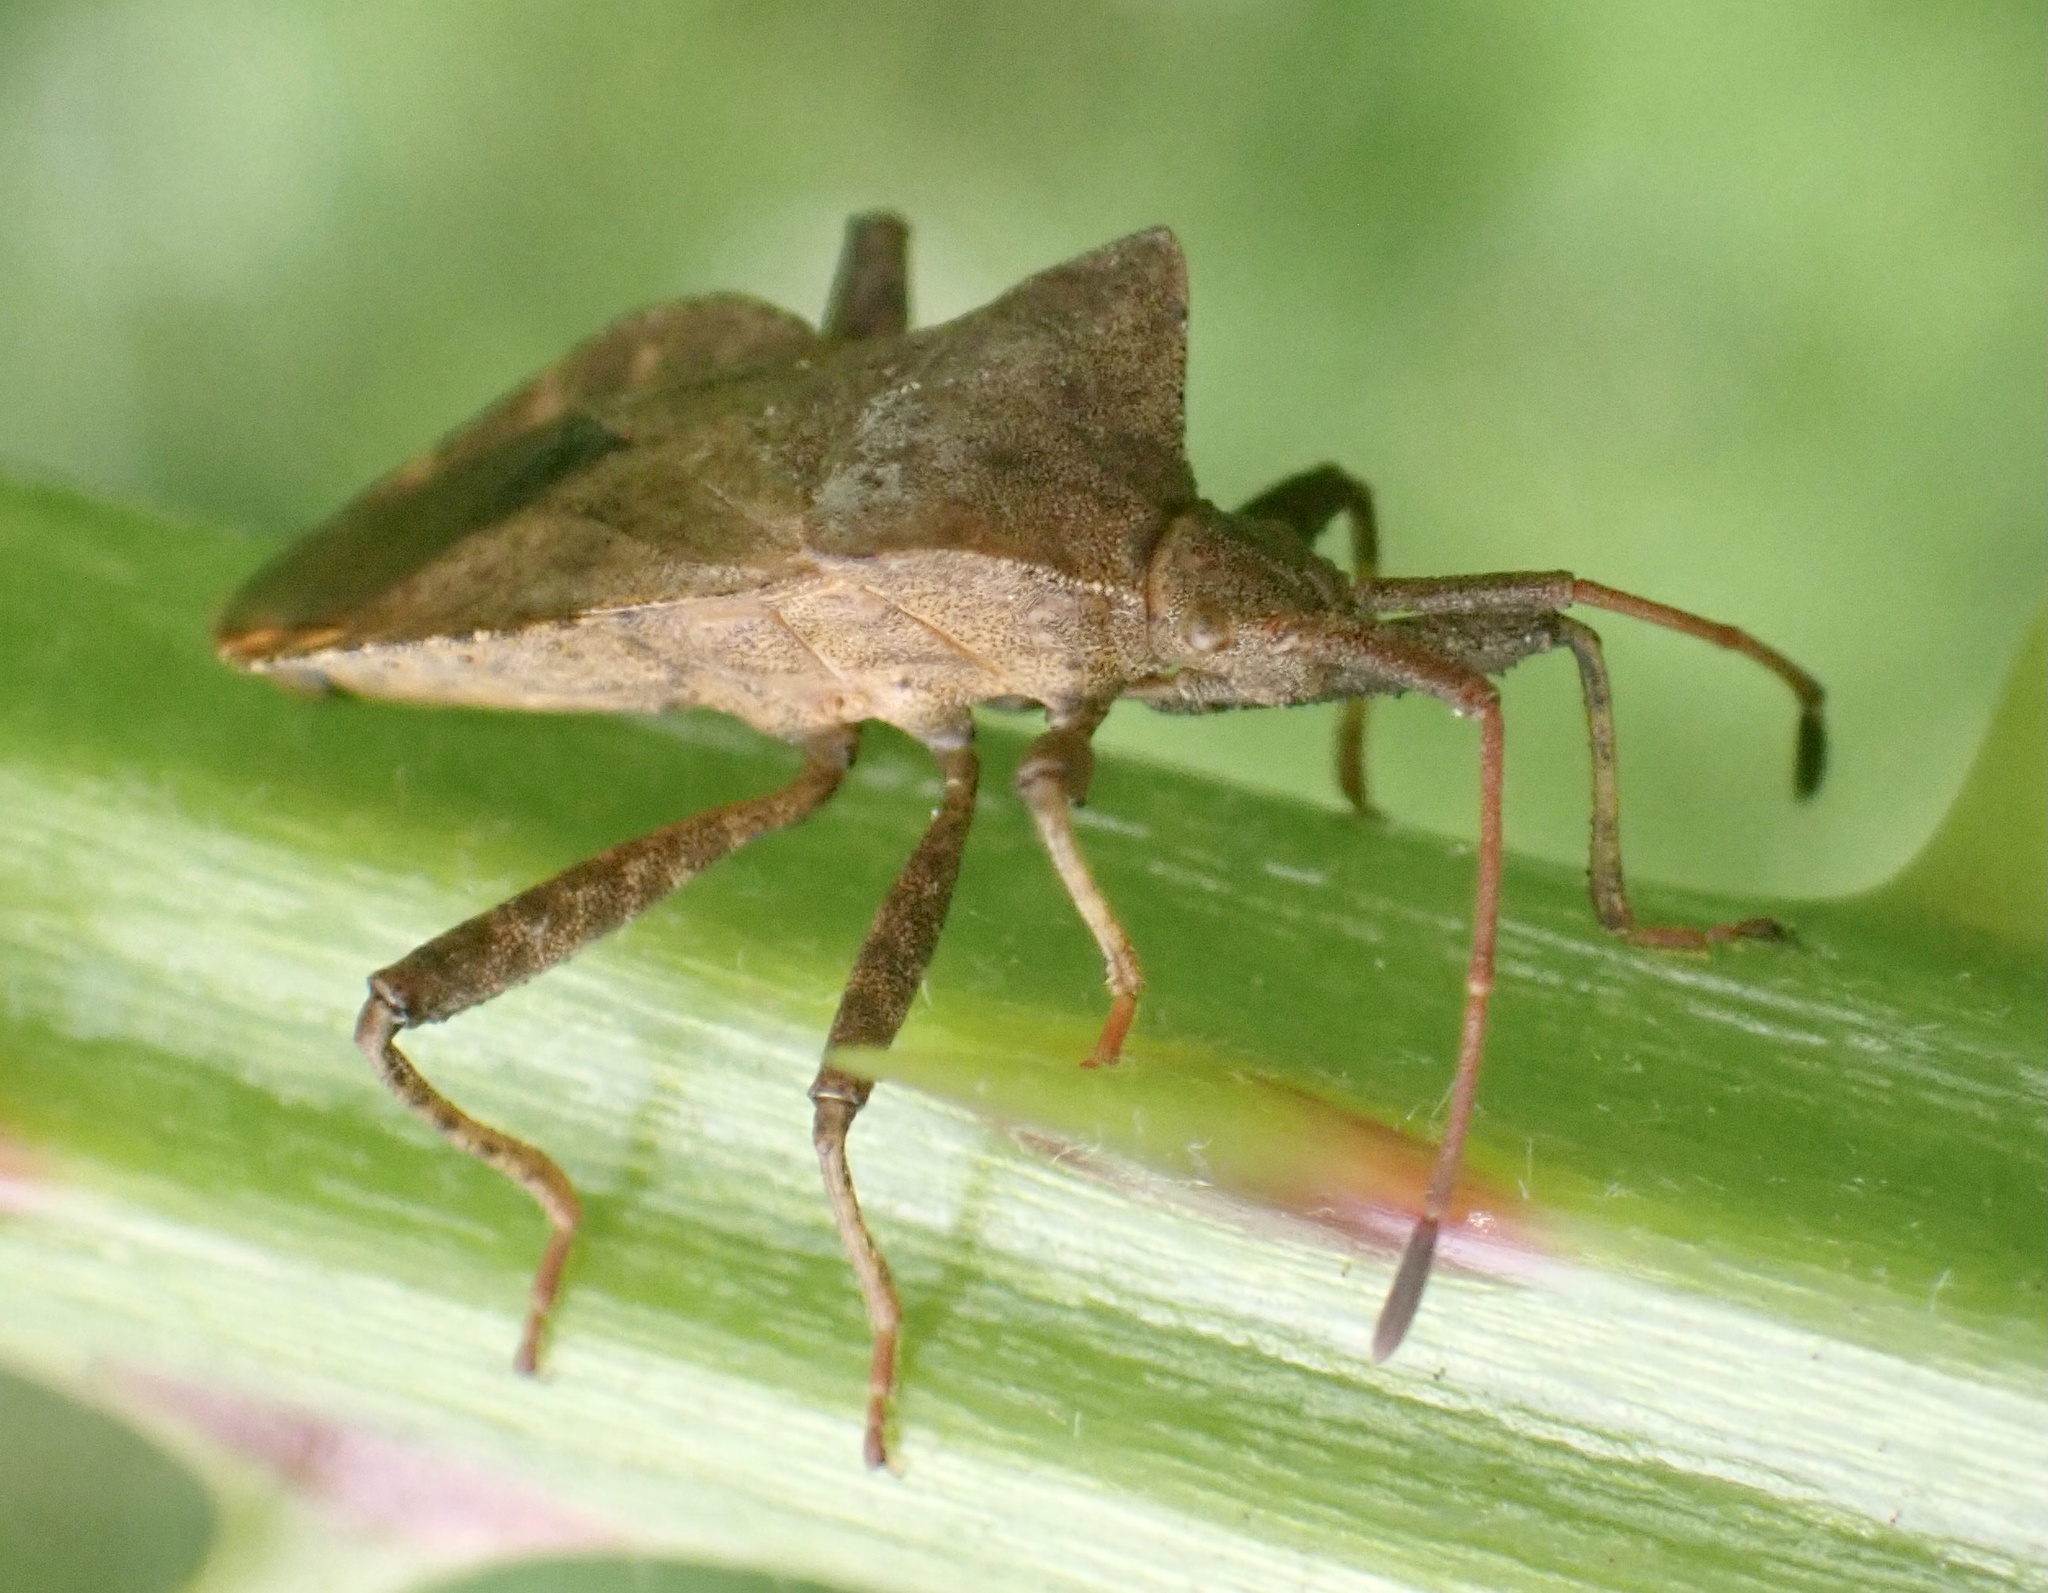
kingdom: Animalia
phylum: Arthropoda
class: Insecta
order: Hemiptera
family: Coreidae
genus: Coreus
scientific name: Coreus marginatus
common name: Dock bug
